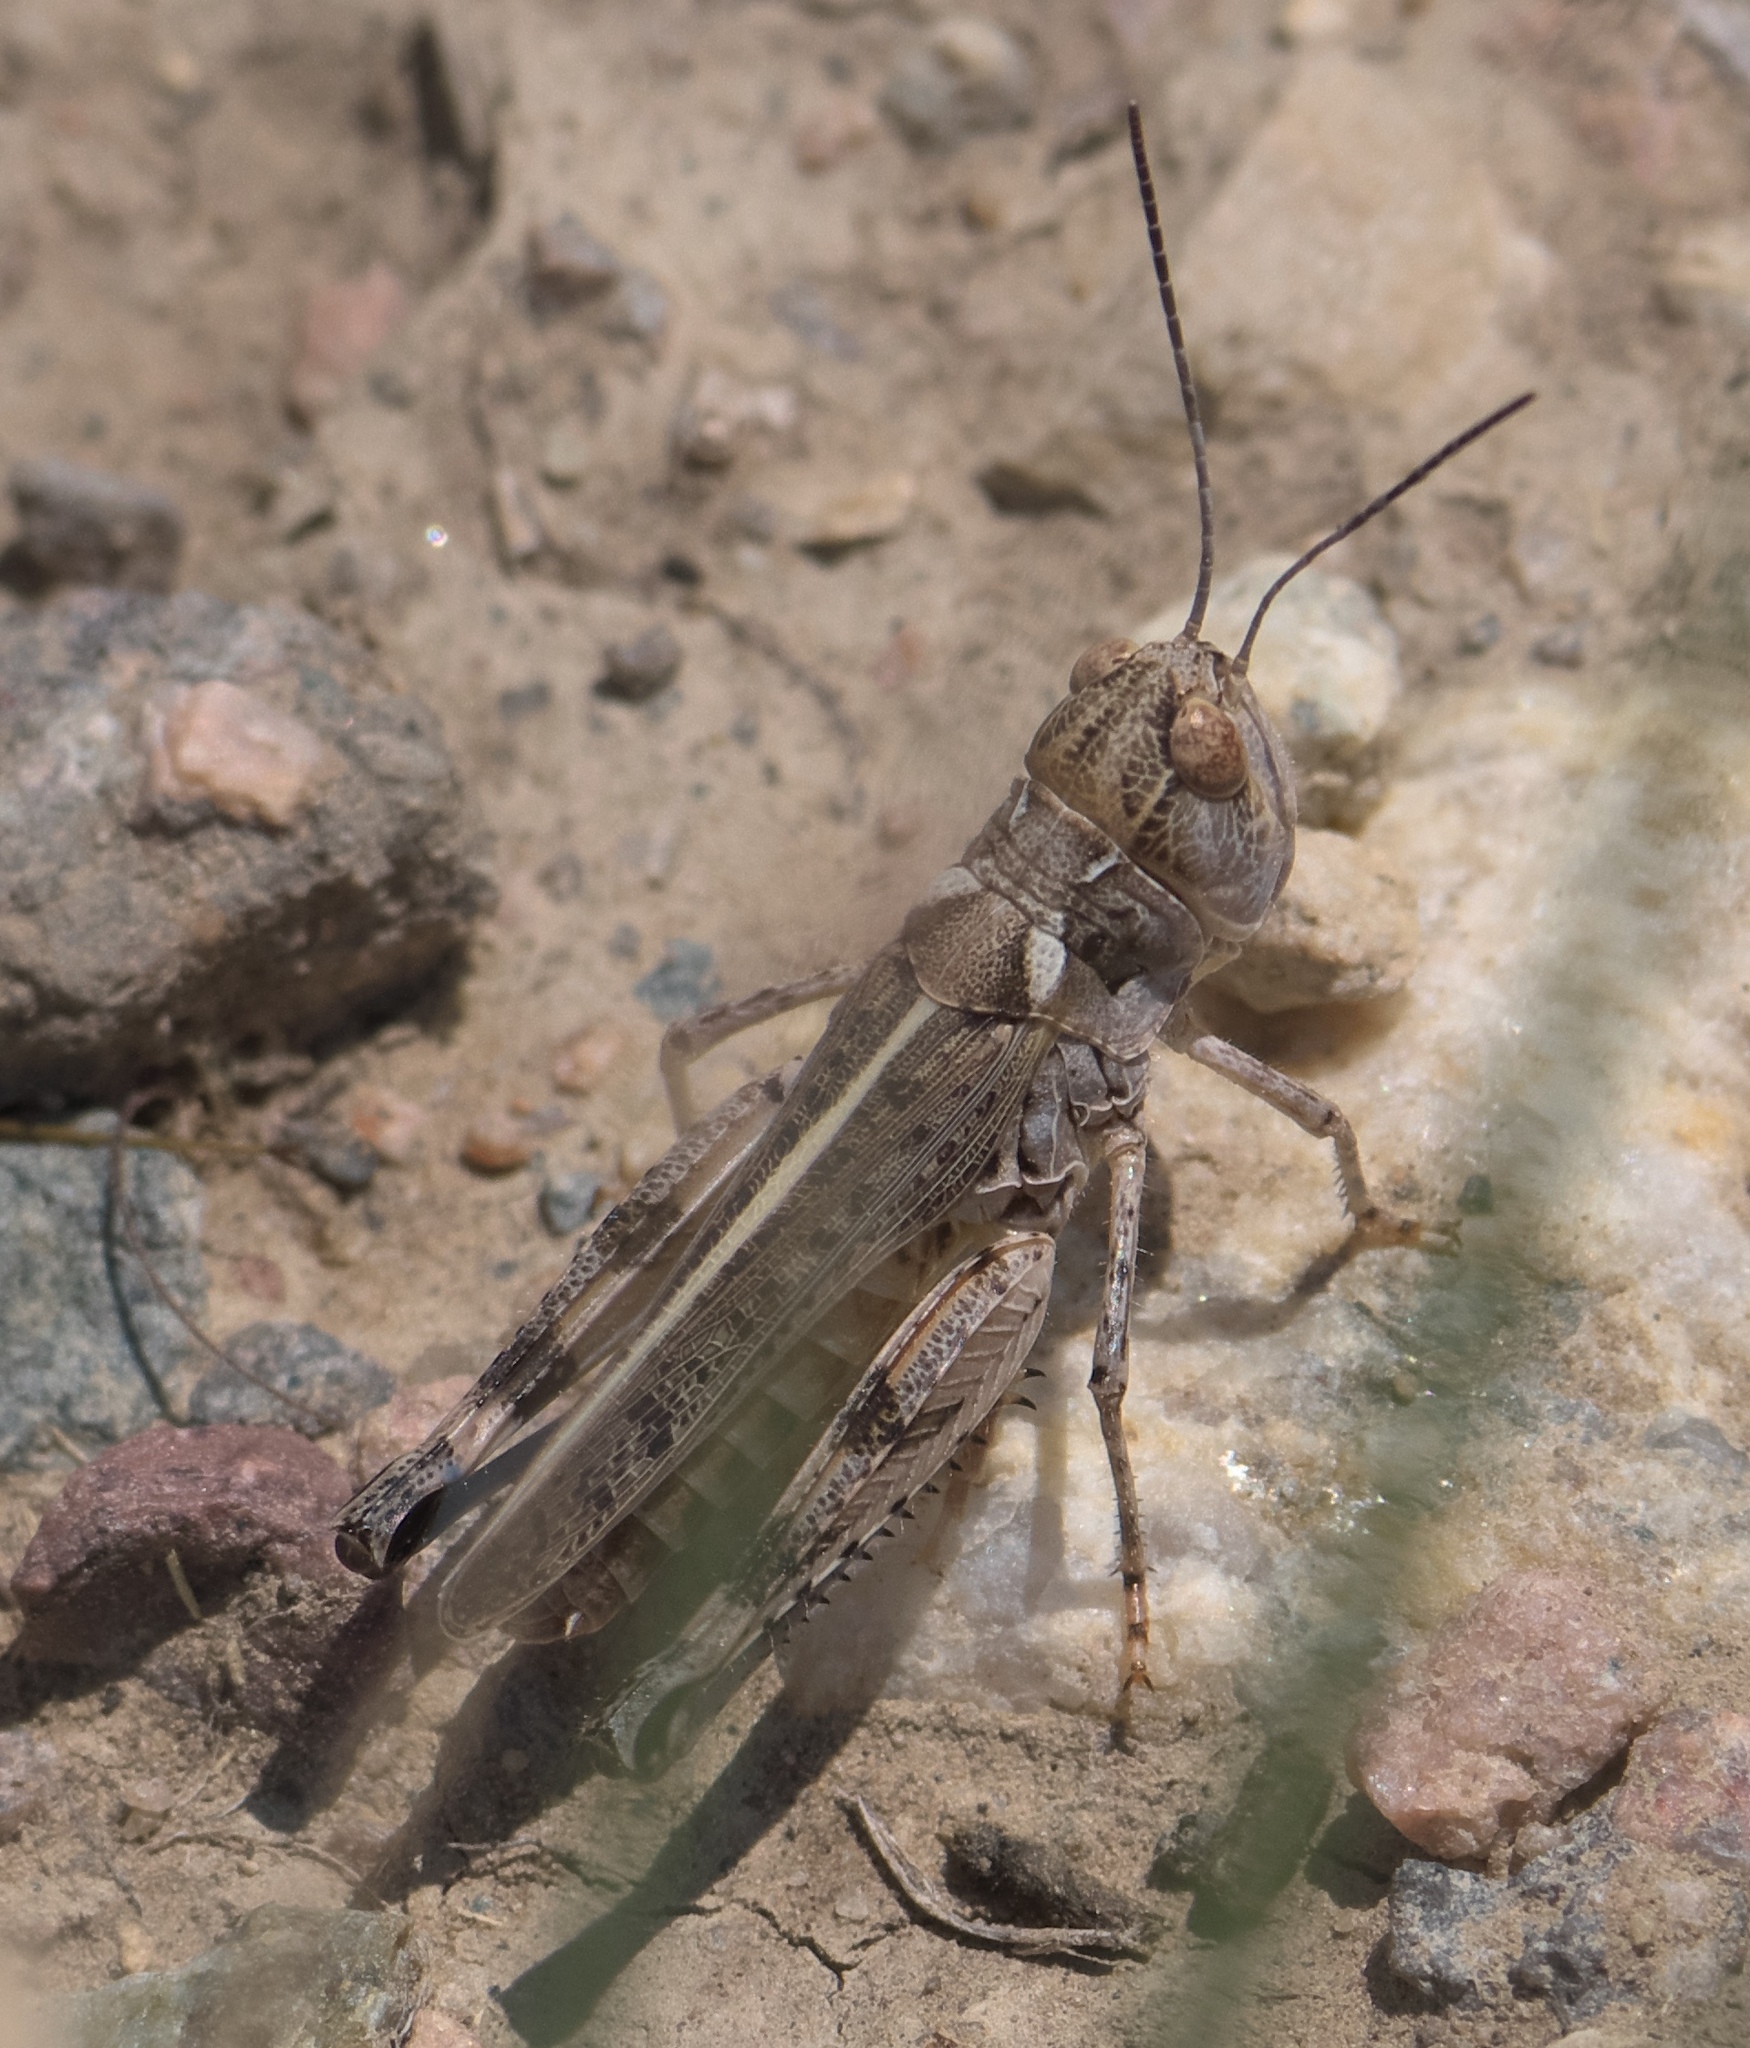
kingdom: Animalia
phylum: Arthropoda
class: Insecta
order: Orthoptera
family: Acrididae
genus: Aulocara
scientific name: Aulocara elliotti
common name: Bigheaded grasshopper
